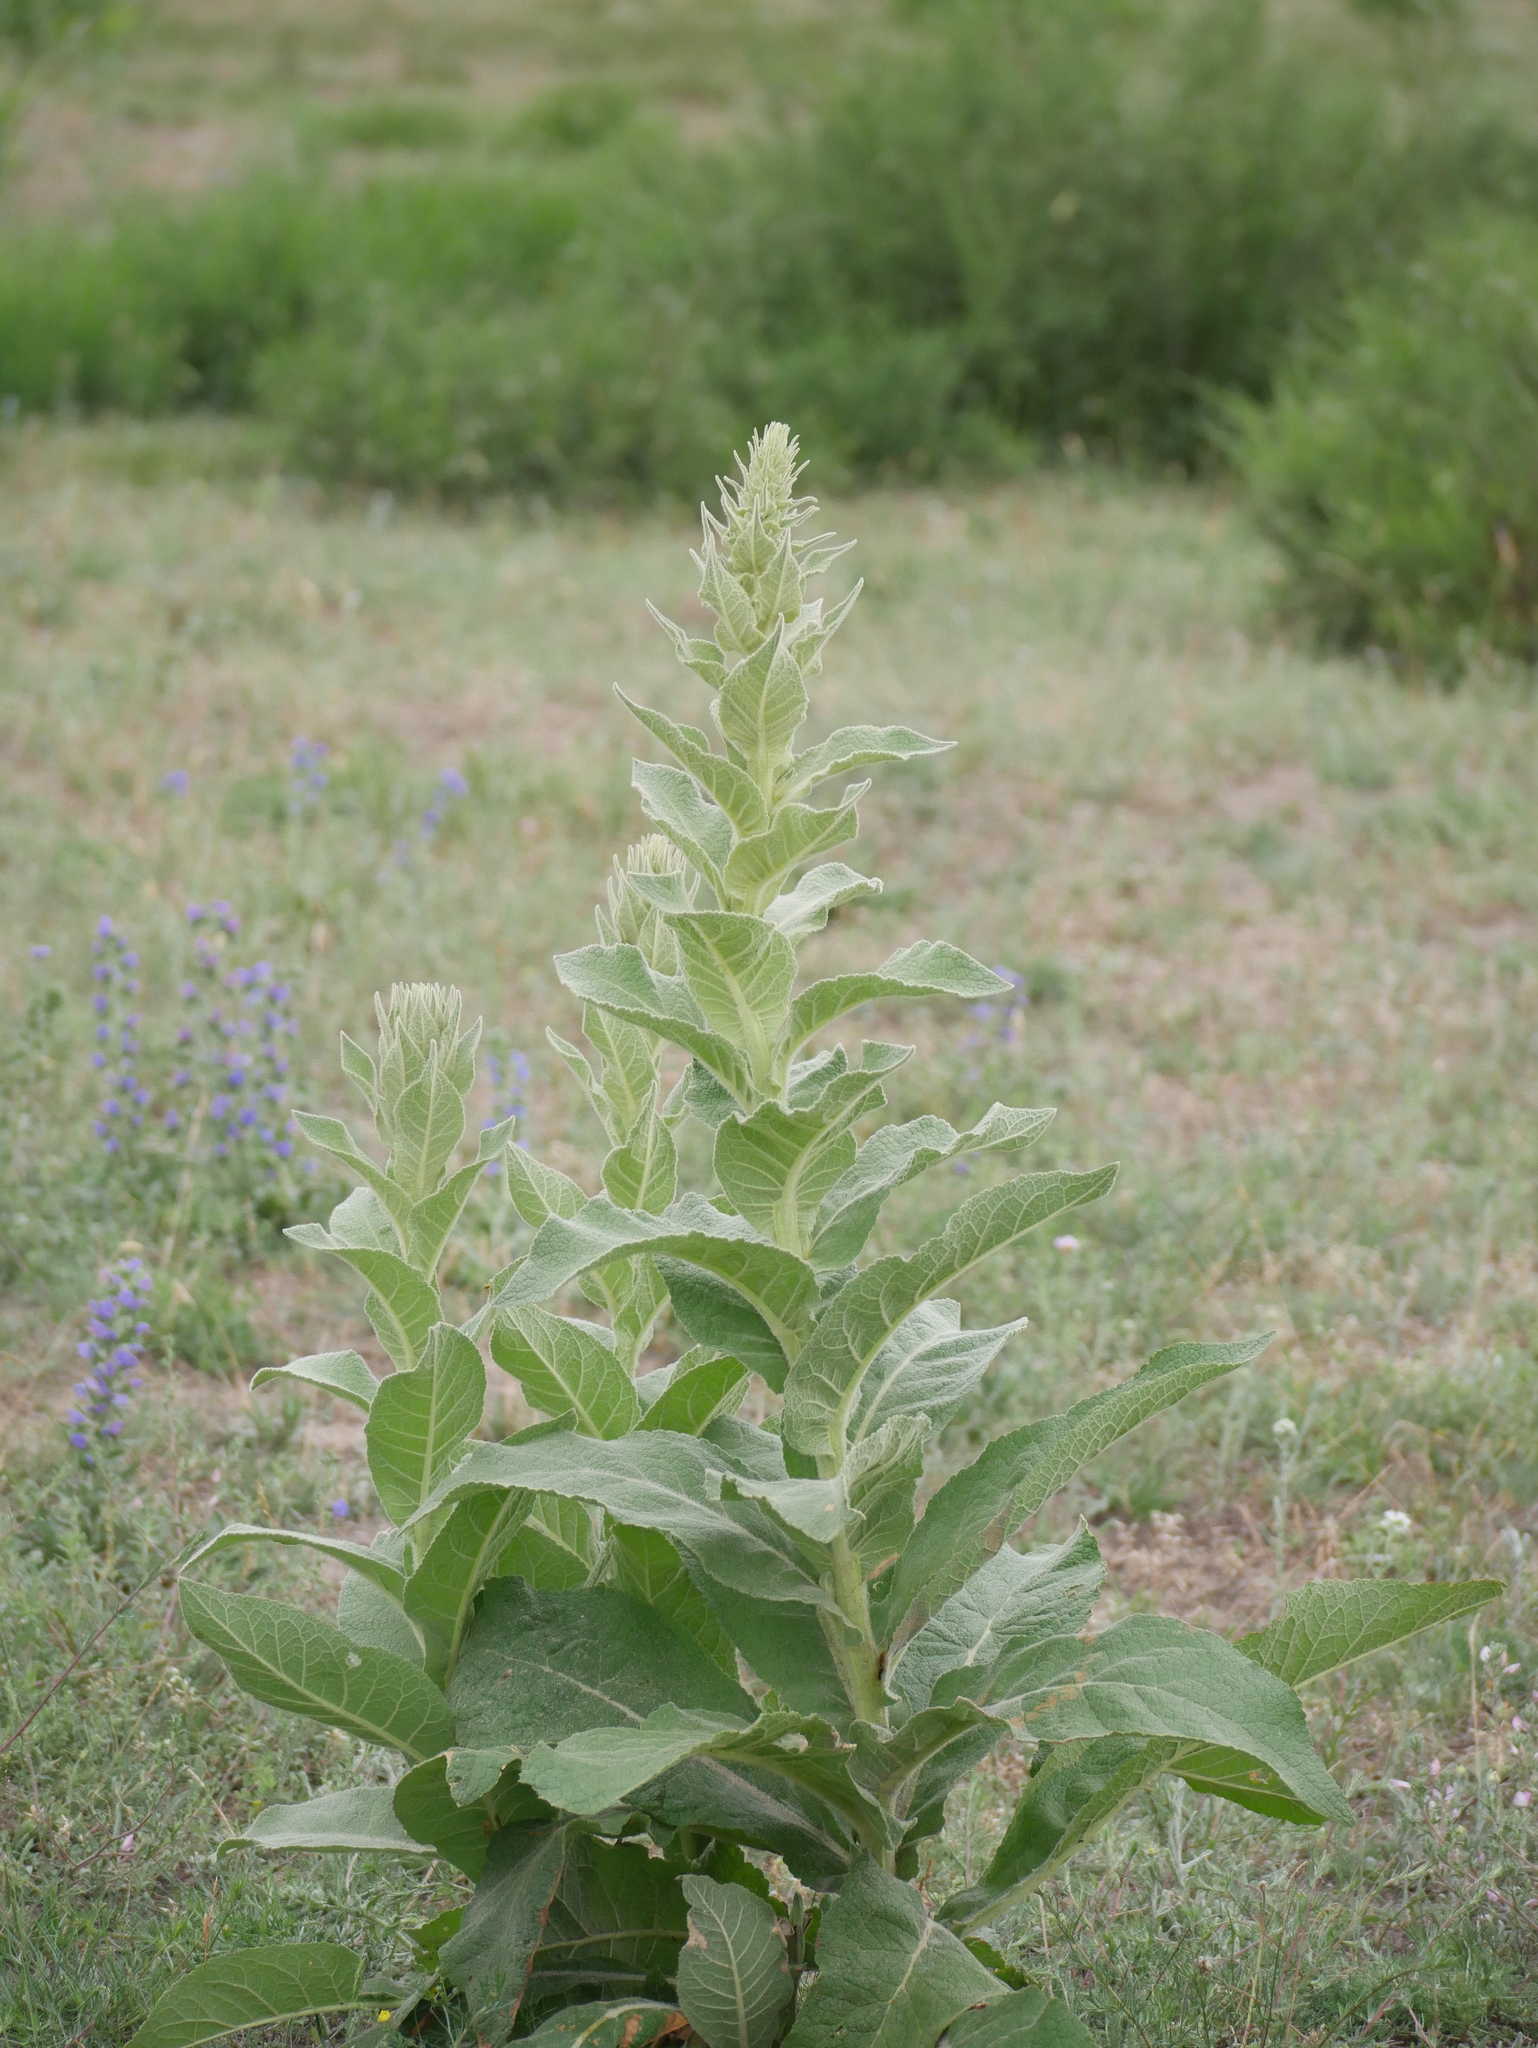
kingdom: Plantae
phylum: Tracheophyta
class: Magnoliopsida
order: Lamiales
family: Scrophulariaceae
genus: Verbascum
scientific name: Verbascum thapsus
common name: Common mullein
